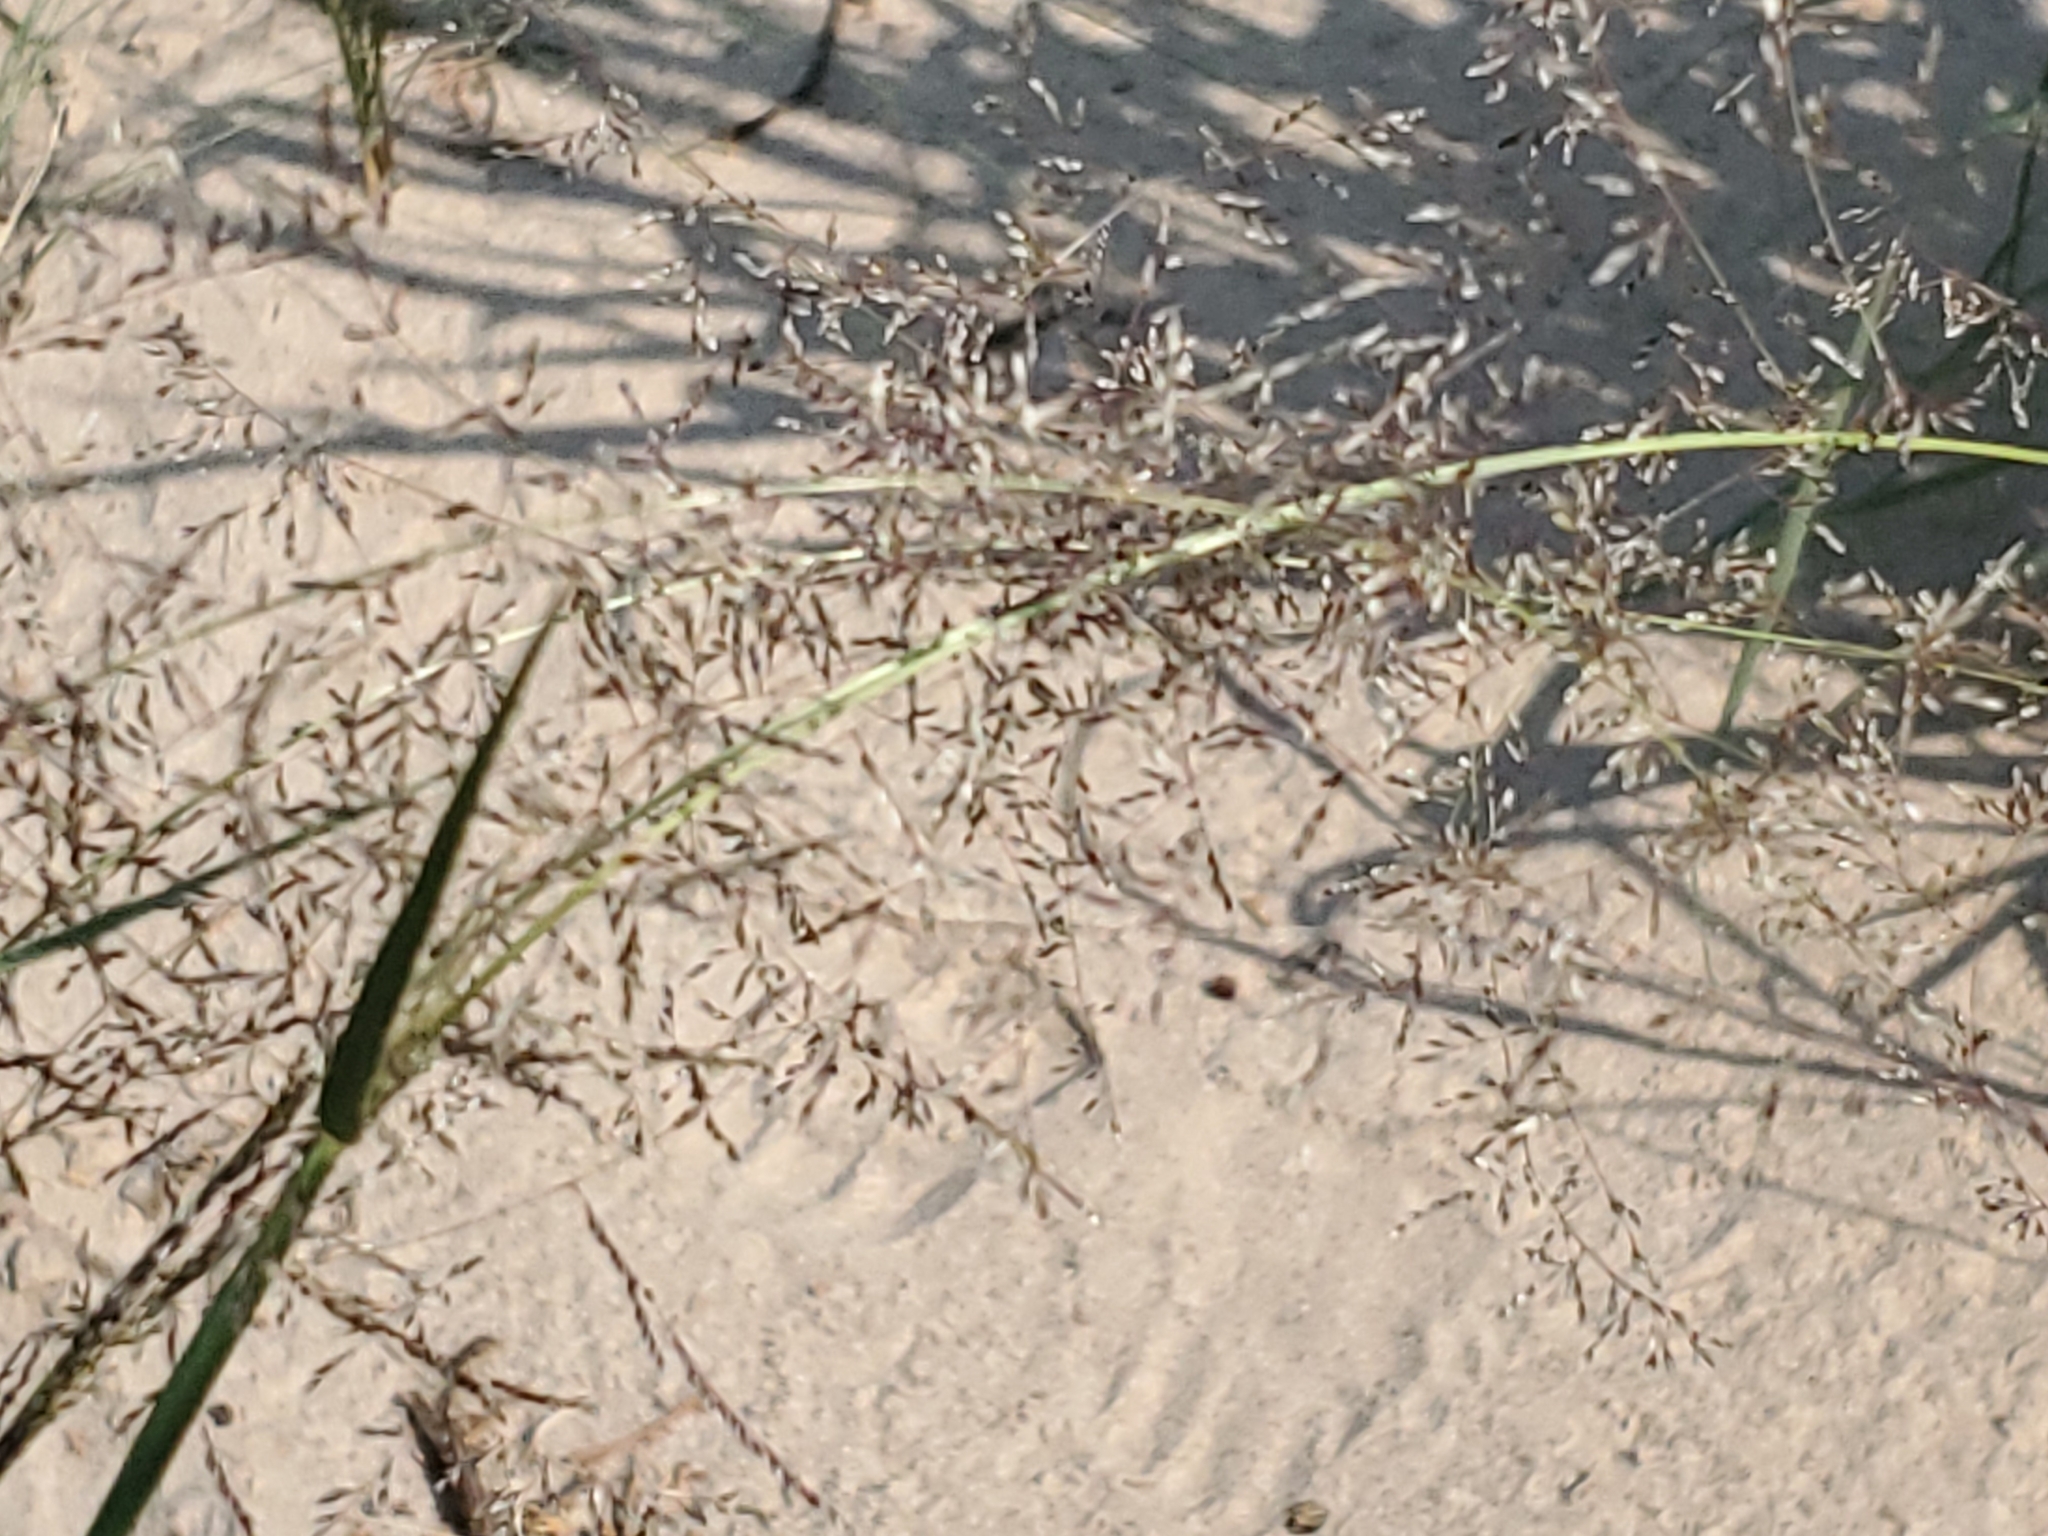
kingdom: Plantae
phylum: Tracheophyta
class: Liliopsida
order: Poales
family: Poaceae
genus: Sporobolus
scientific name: Sporobolus flexuosus
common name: Mesa dropseed
